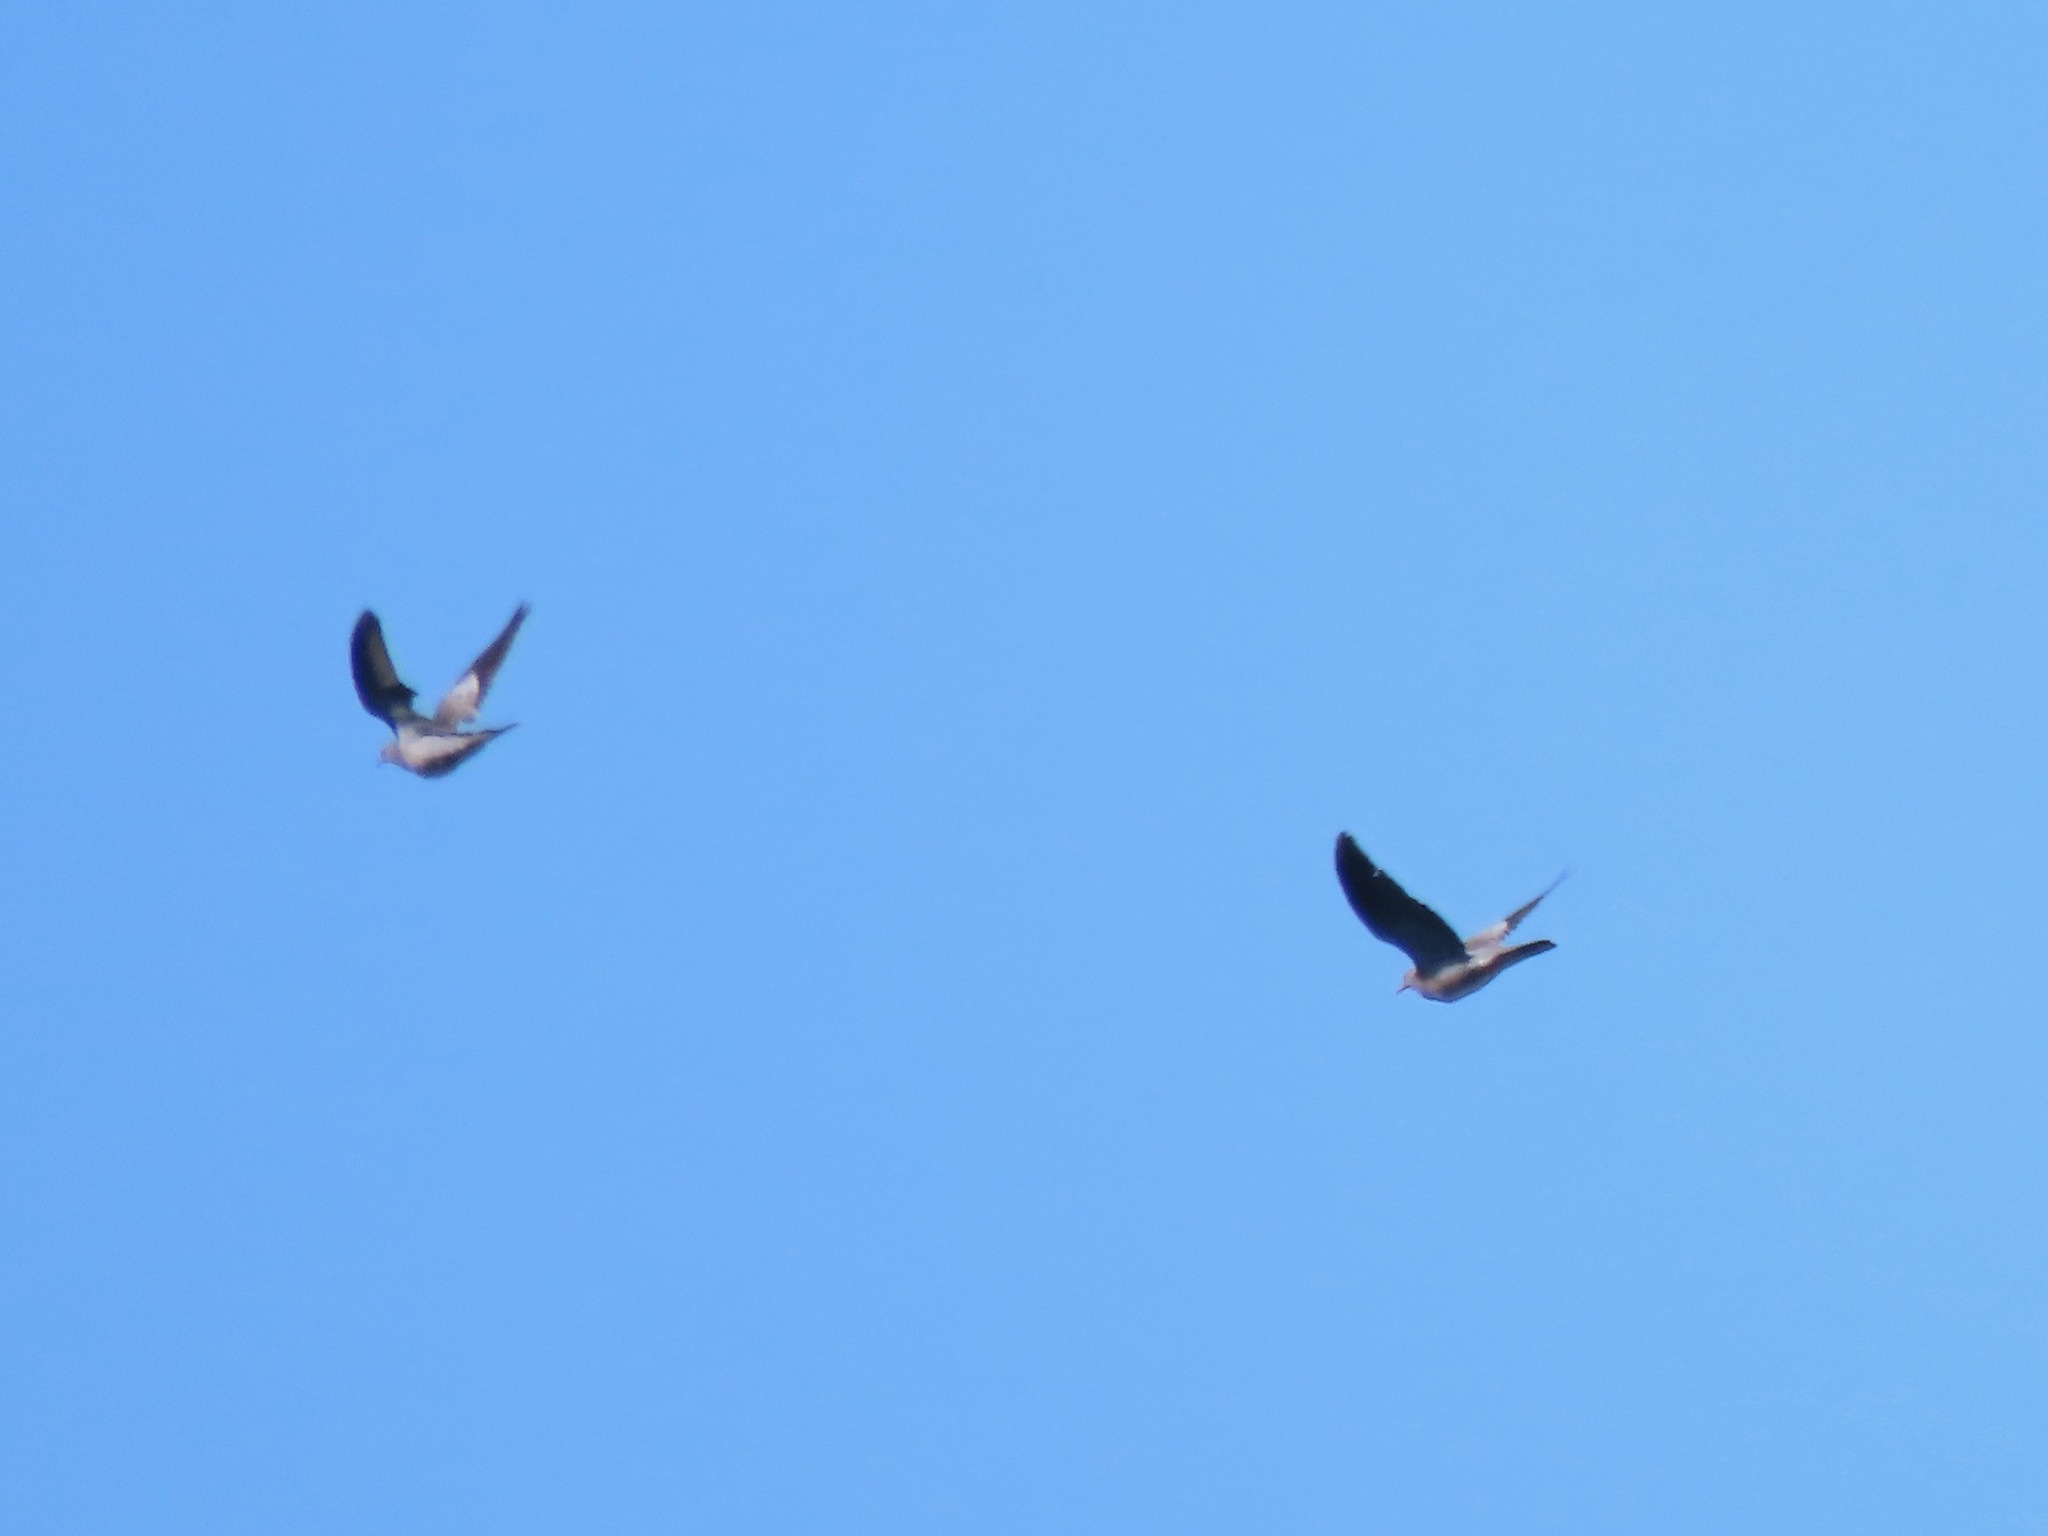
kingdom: Animalia
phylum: Chordata
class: Aves
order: Columbiformes
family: Columbidae
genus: Patagioenas
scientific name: Patagioenas fasciata
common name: Band-tailed pigeon
